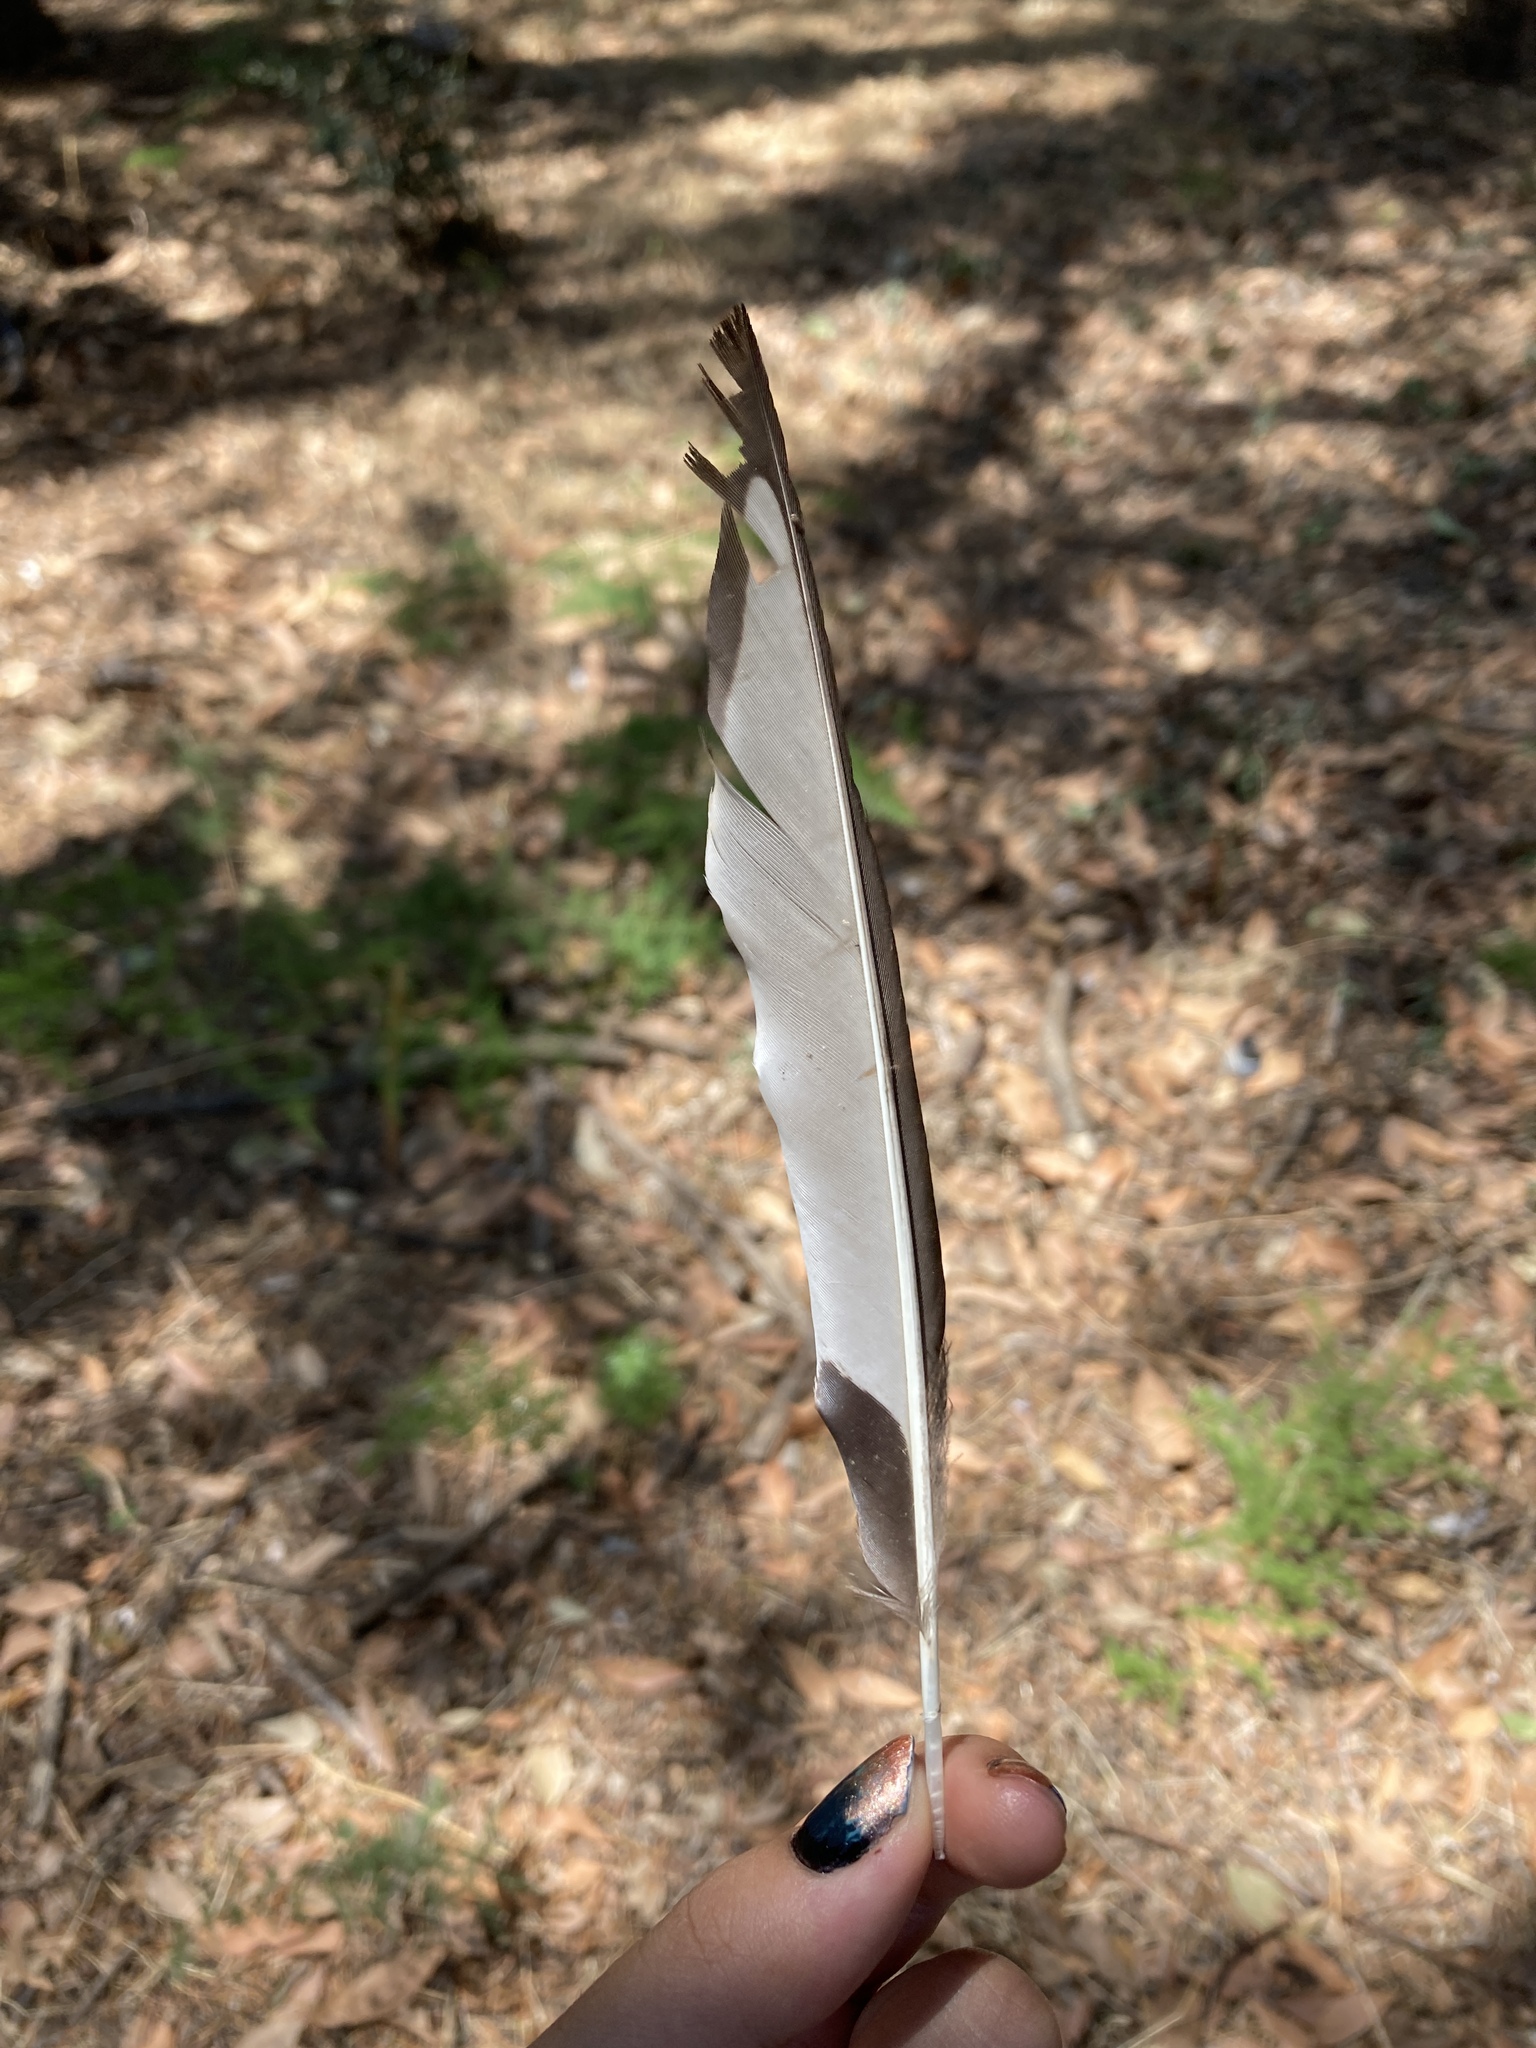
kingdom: Animalia
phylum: Chordata
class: Aves
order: Passeriformes
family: Corvidae
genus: Pica
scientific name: Pica pica
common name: Eurasian magpie
